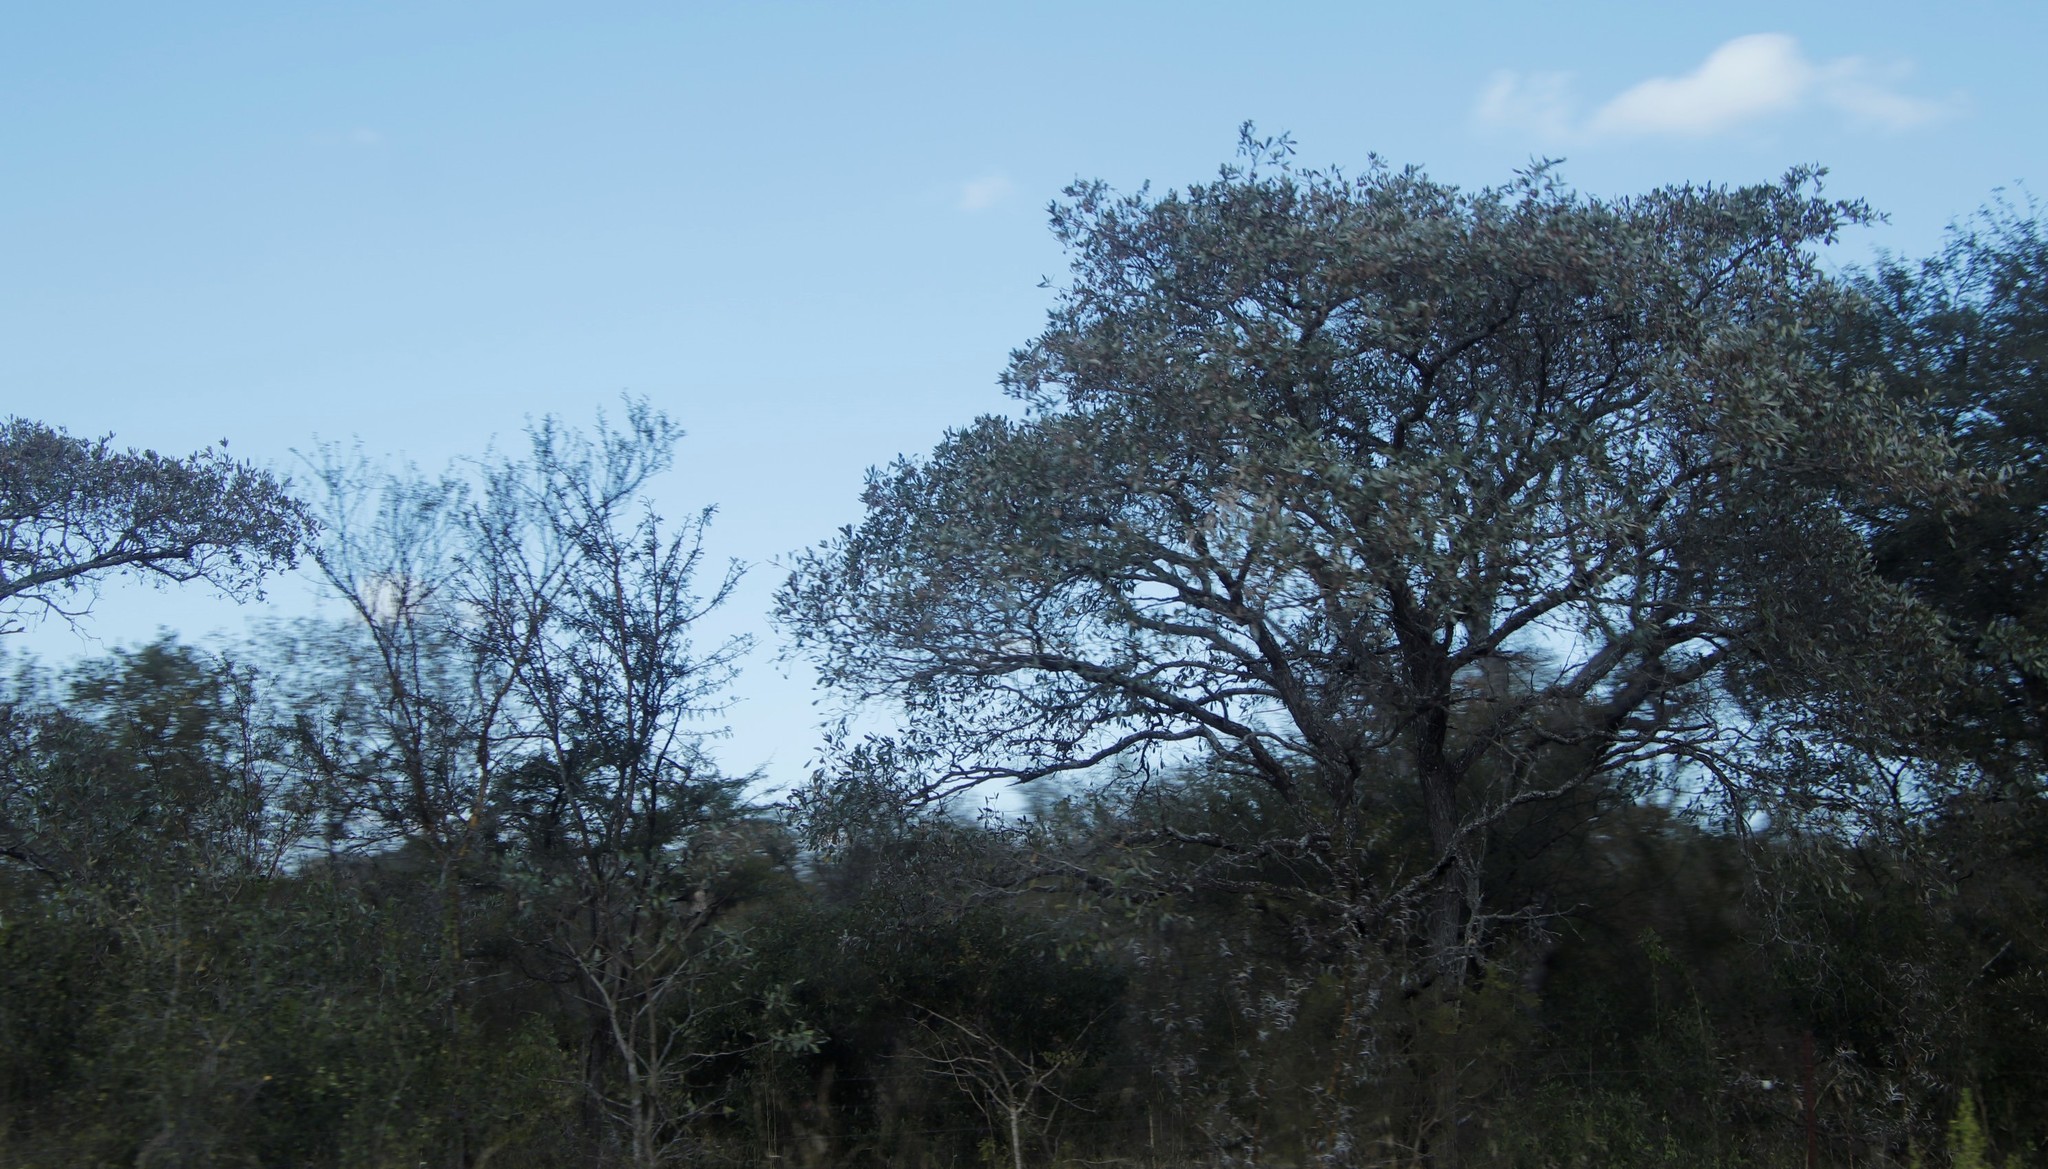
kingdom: Plantae
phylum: Tracheophyta
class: Magnoliopsida
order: Myrtales
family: Combretaceae
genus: Terminalia
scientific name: Terminalia sericea
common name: Clusterleaf
